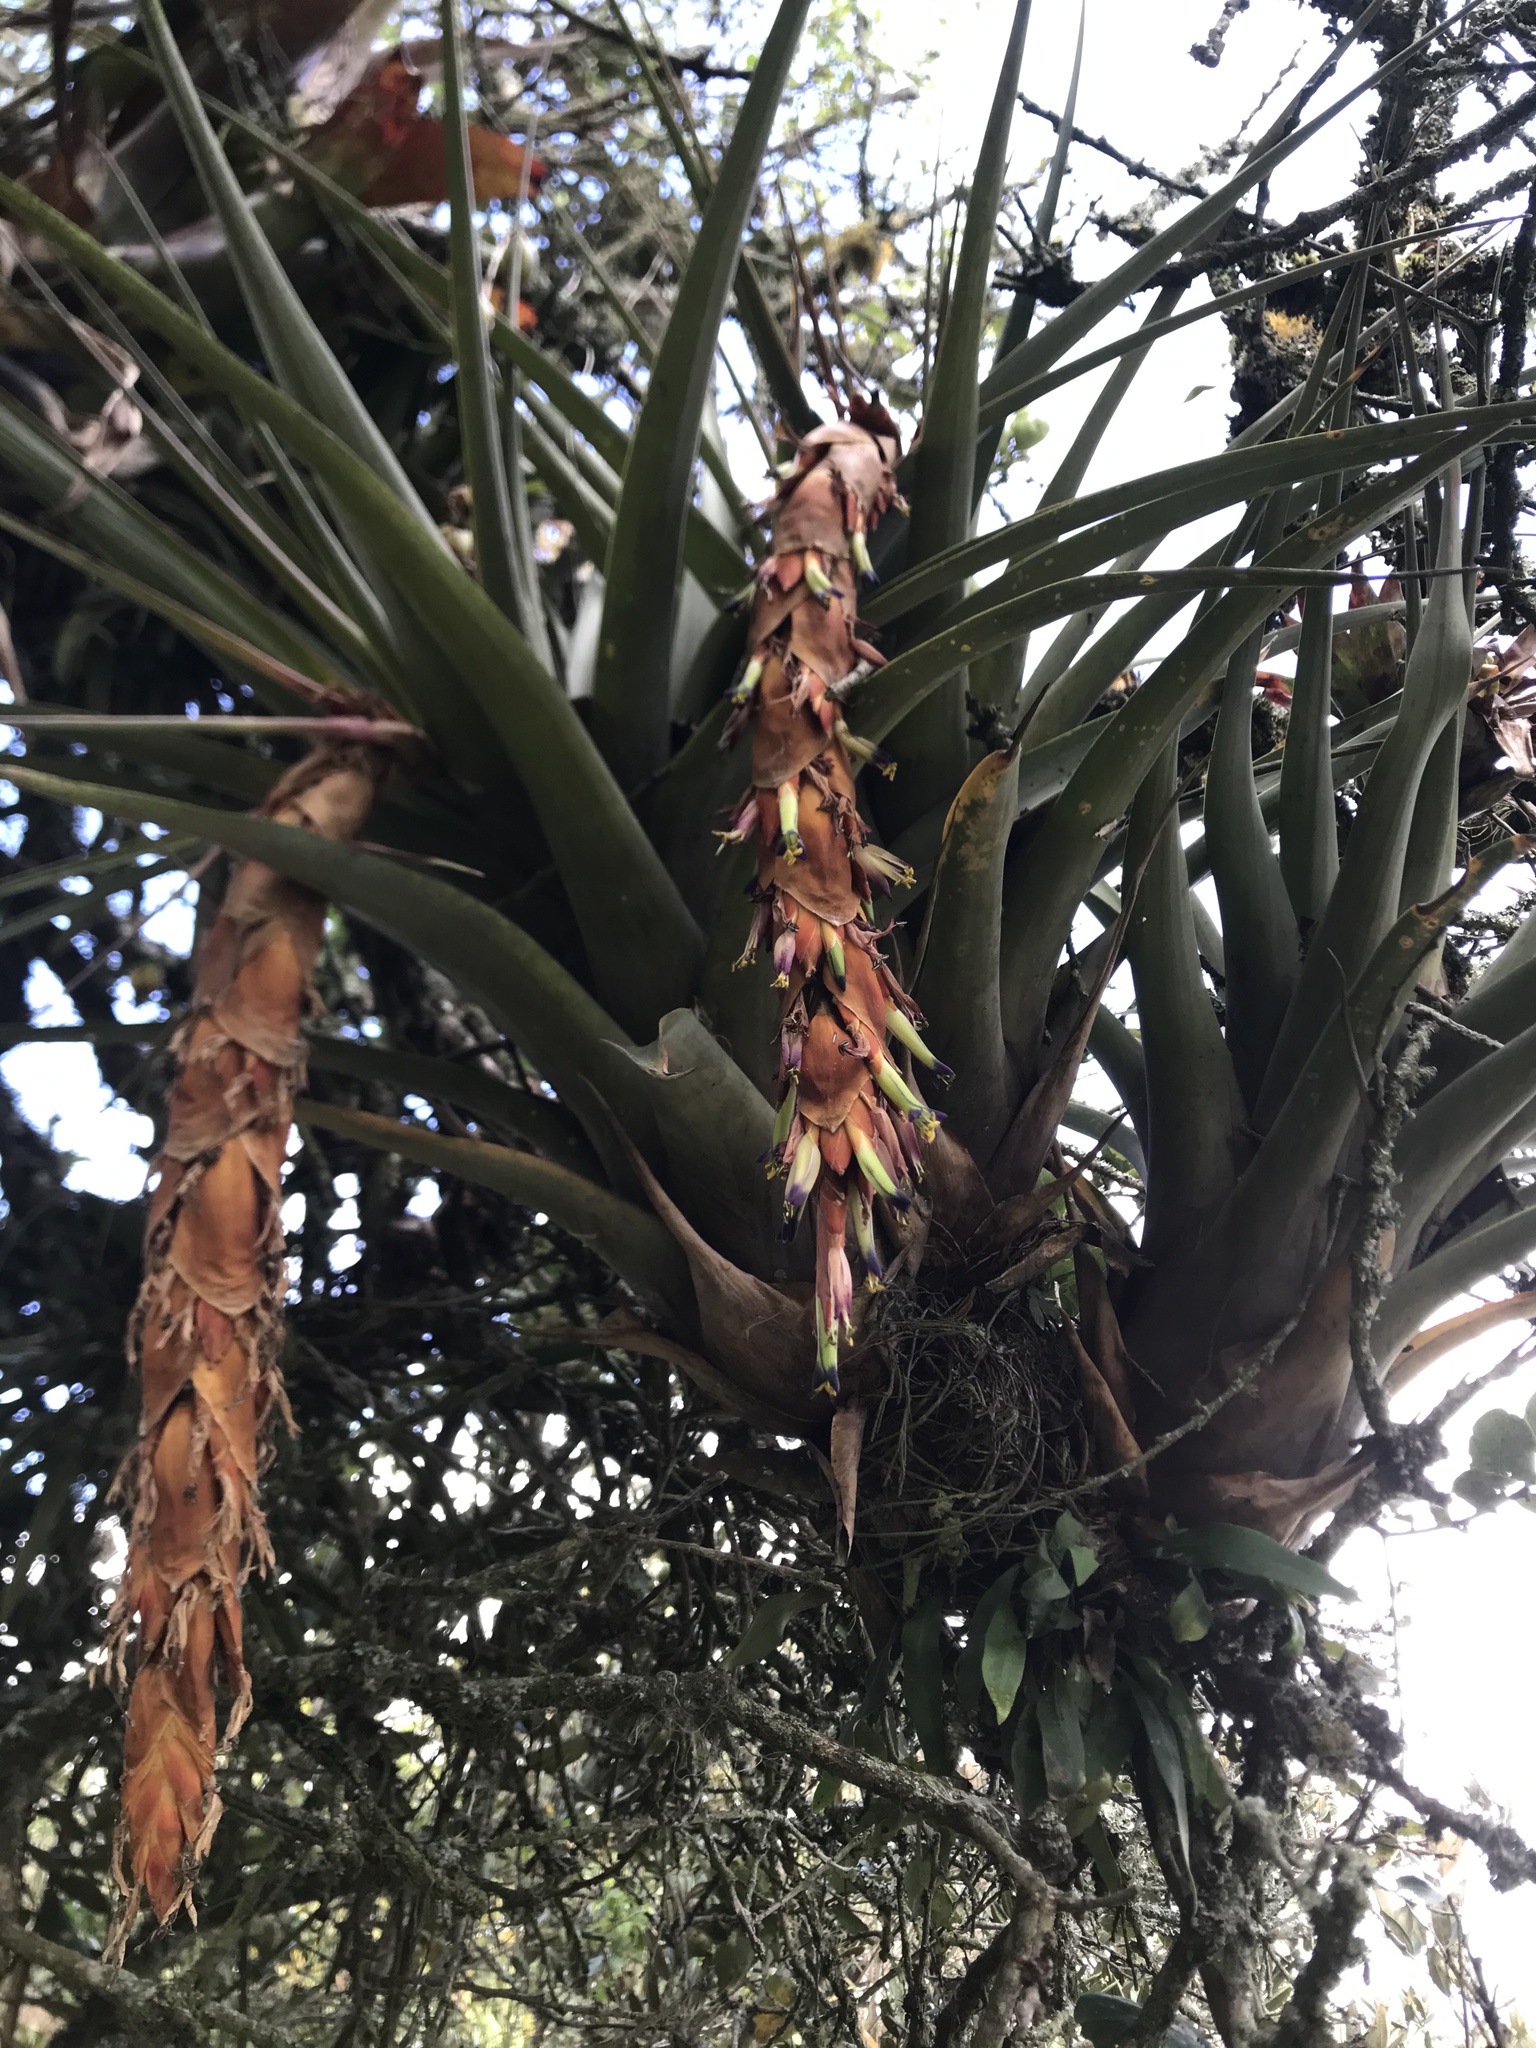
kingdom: Plantae
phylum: Tracheophyta
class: Liliopsida
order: Poales
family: Bromeliaceae
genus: Vriesea
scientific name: Vriesea tequendamae
